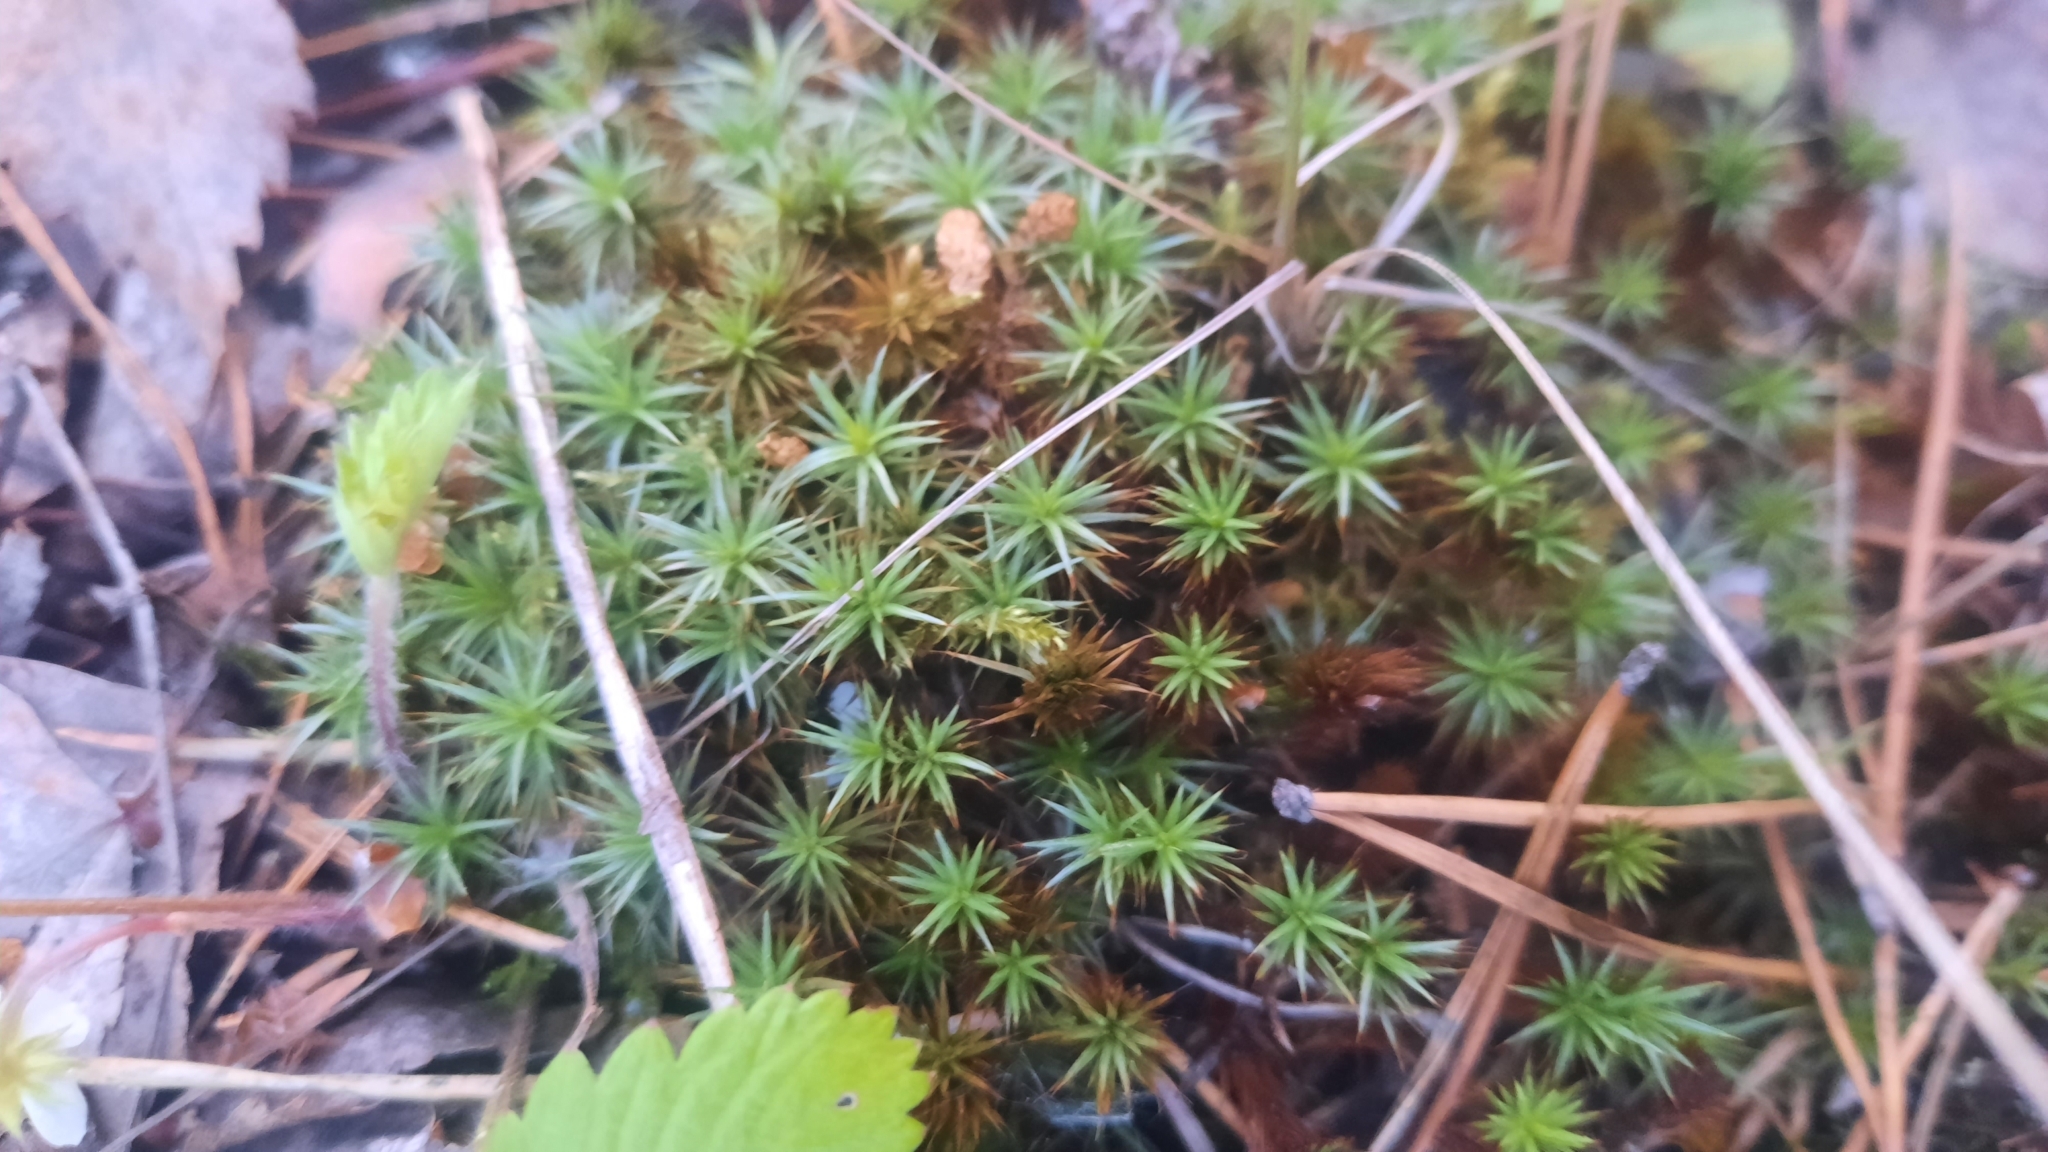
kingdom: Plantae
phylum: Bryophyta
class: Polytrichopsida
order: Polytrichales
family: Polytrichaceae
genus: Polytrichum
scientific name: Polytrichum juniperinum
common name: Juniper haircap moss
